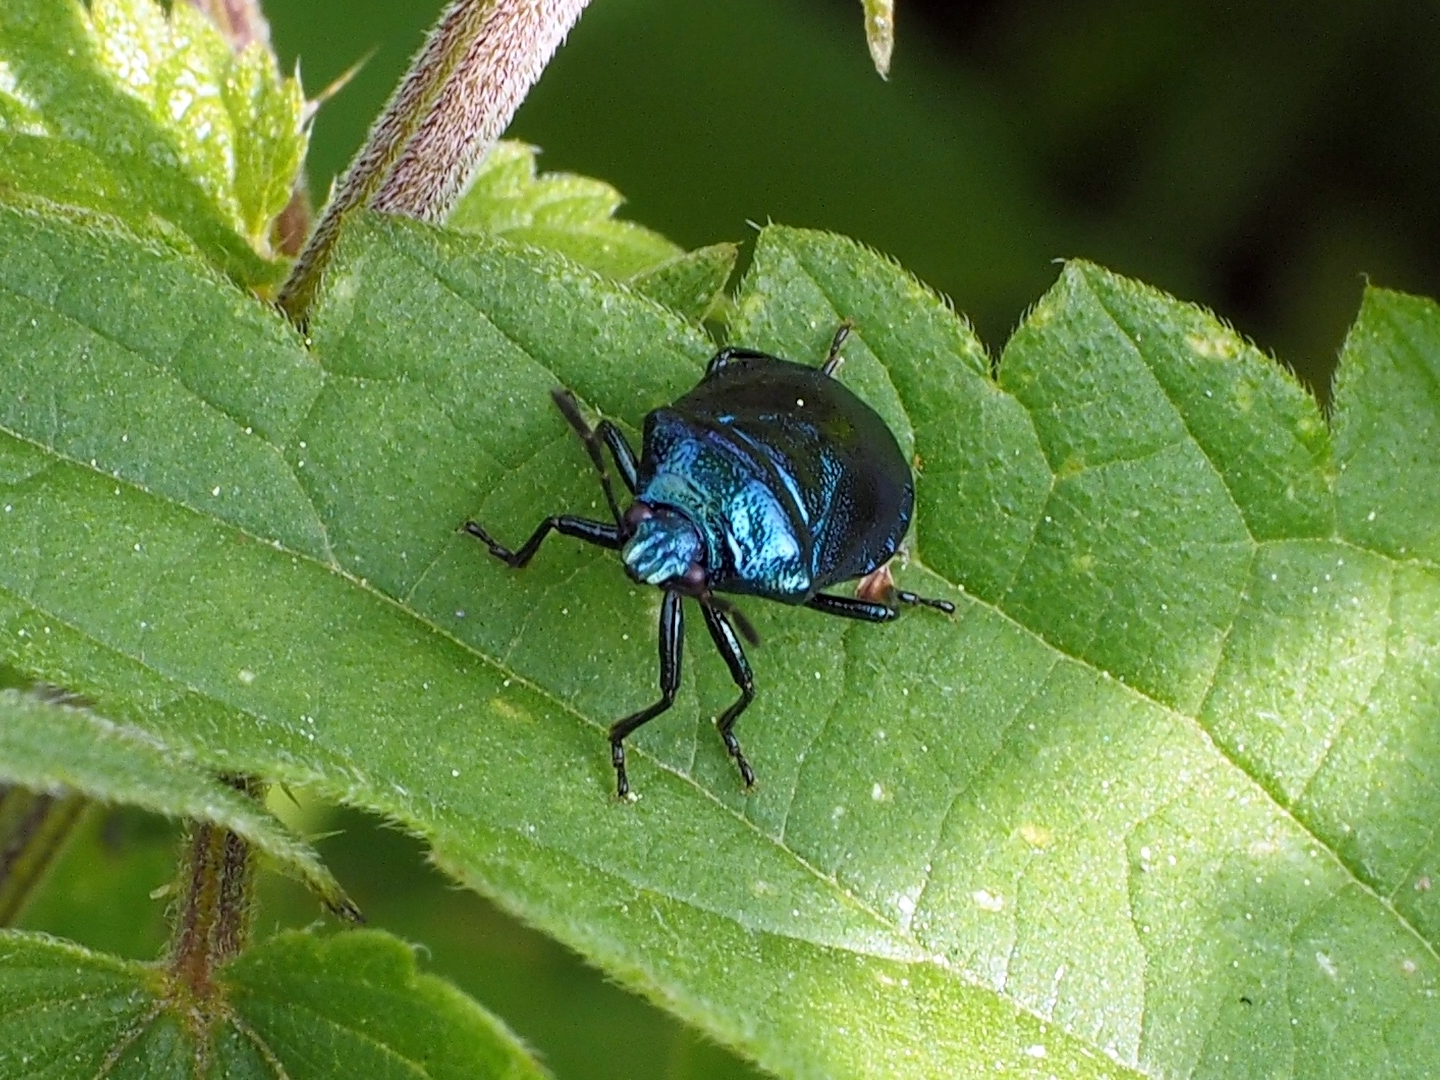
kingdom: Animalia
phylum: Arthropoda
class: Insecta
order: Hemiptera
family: Pentatomidae
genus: Zicrona
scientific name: Zicrona caerulea
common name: Blue shieldbug
